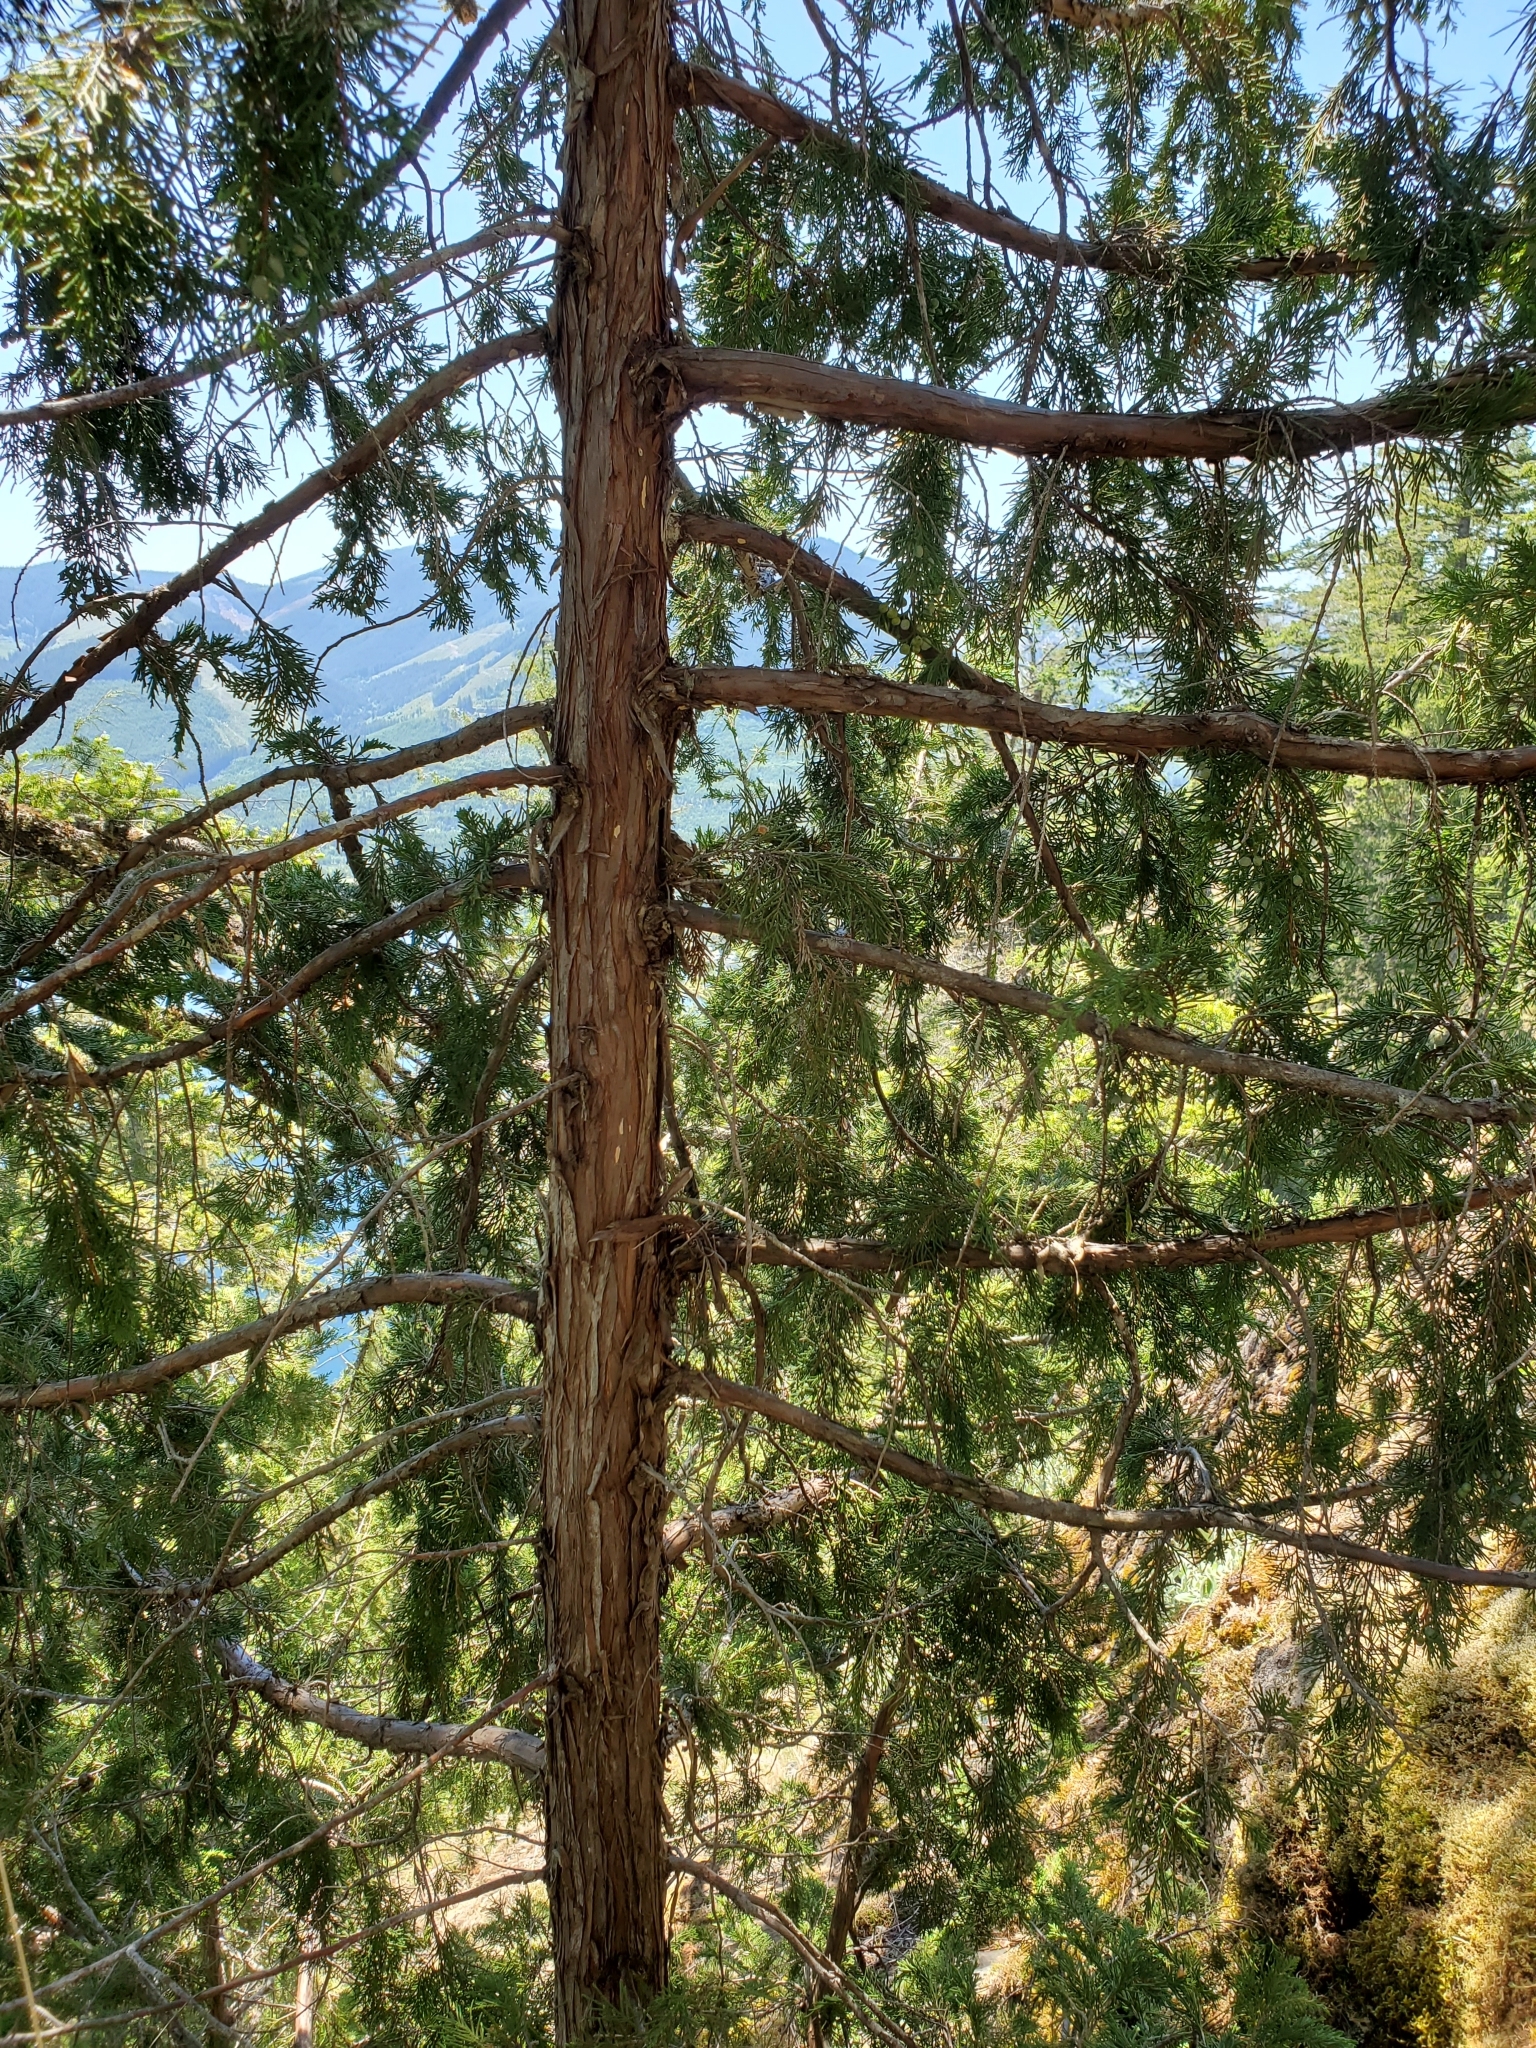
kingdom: Plantae
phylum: Tracheophyta
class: Pinopsida
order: Pinales
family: Cupressaceae
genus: Juniperus
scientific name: Juniperus scopulorum
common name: Rocky mountain juniper
